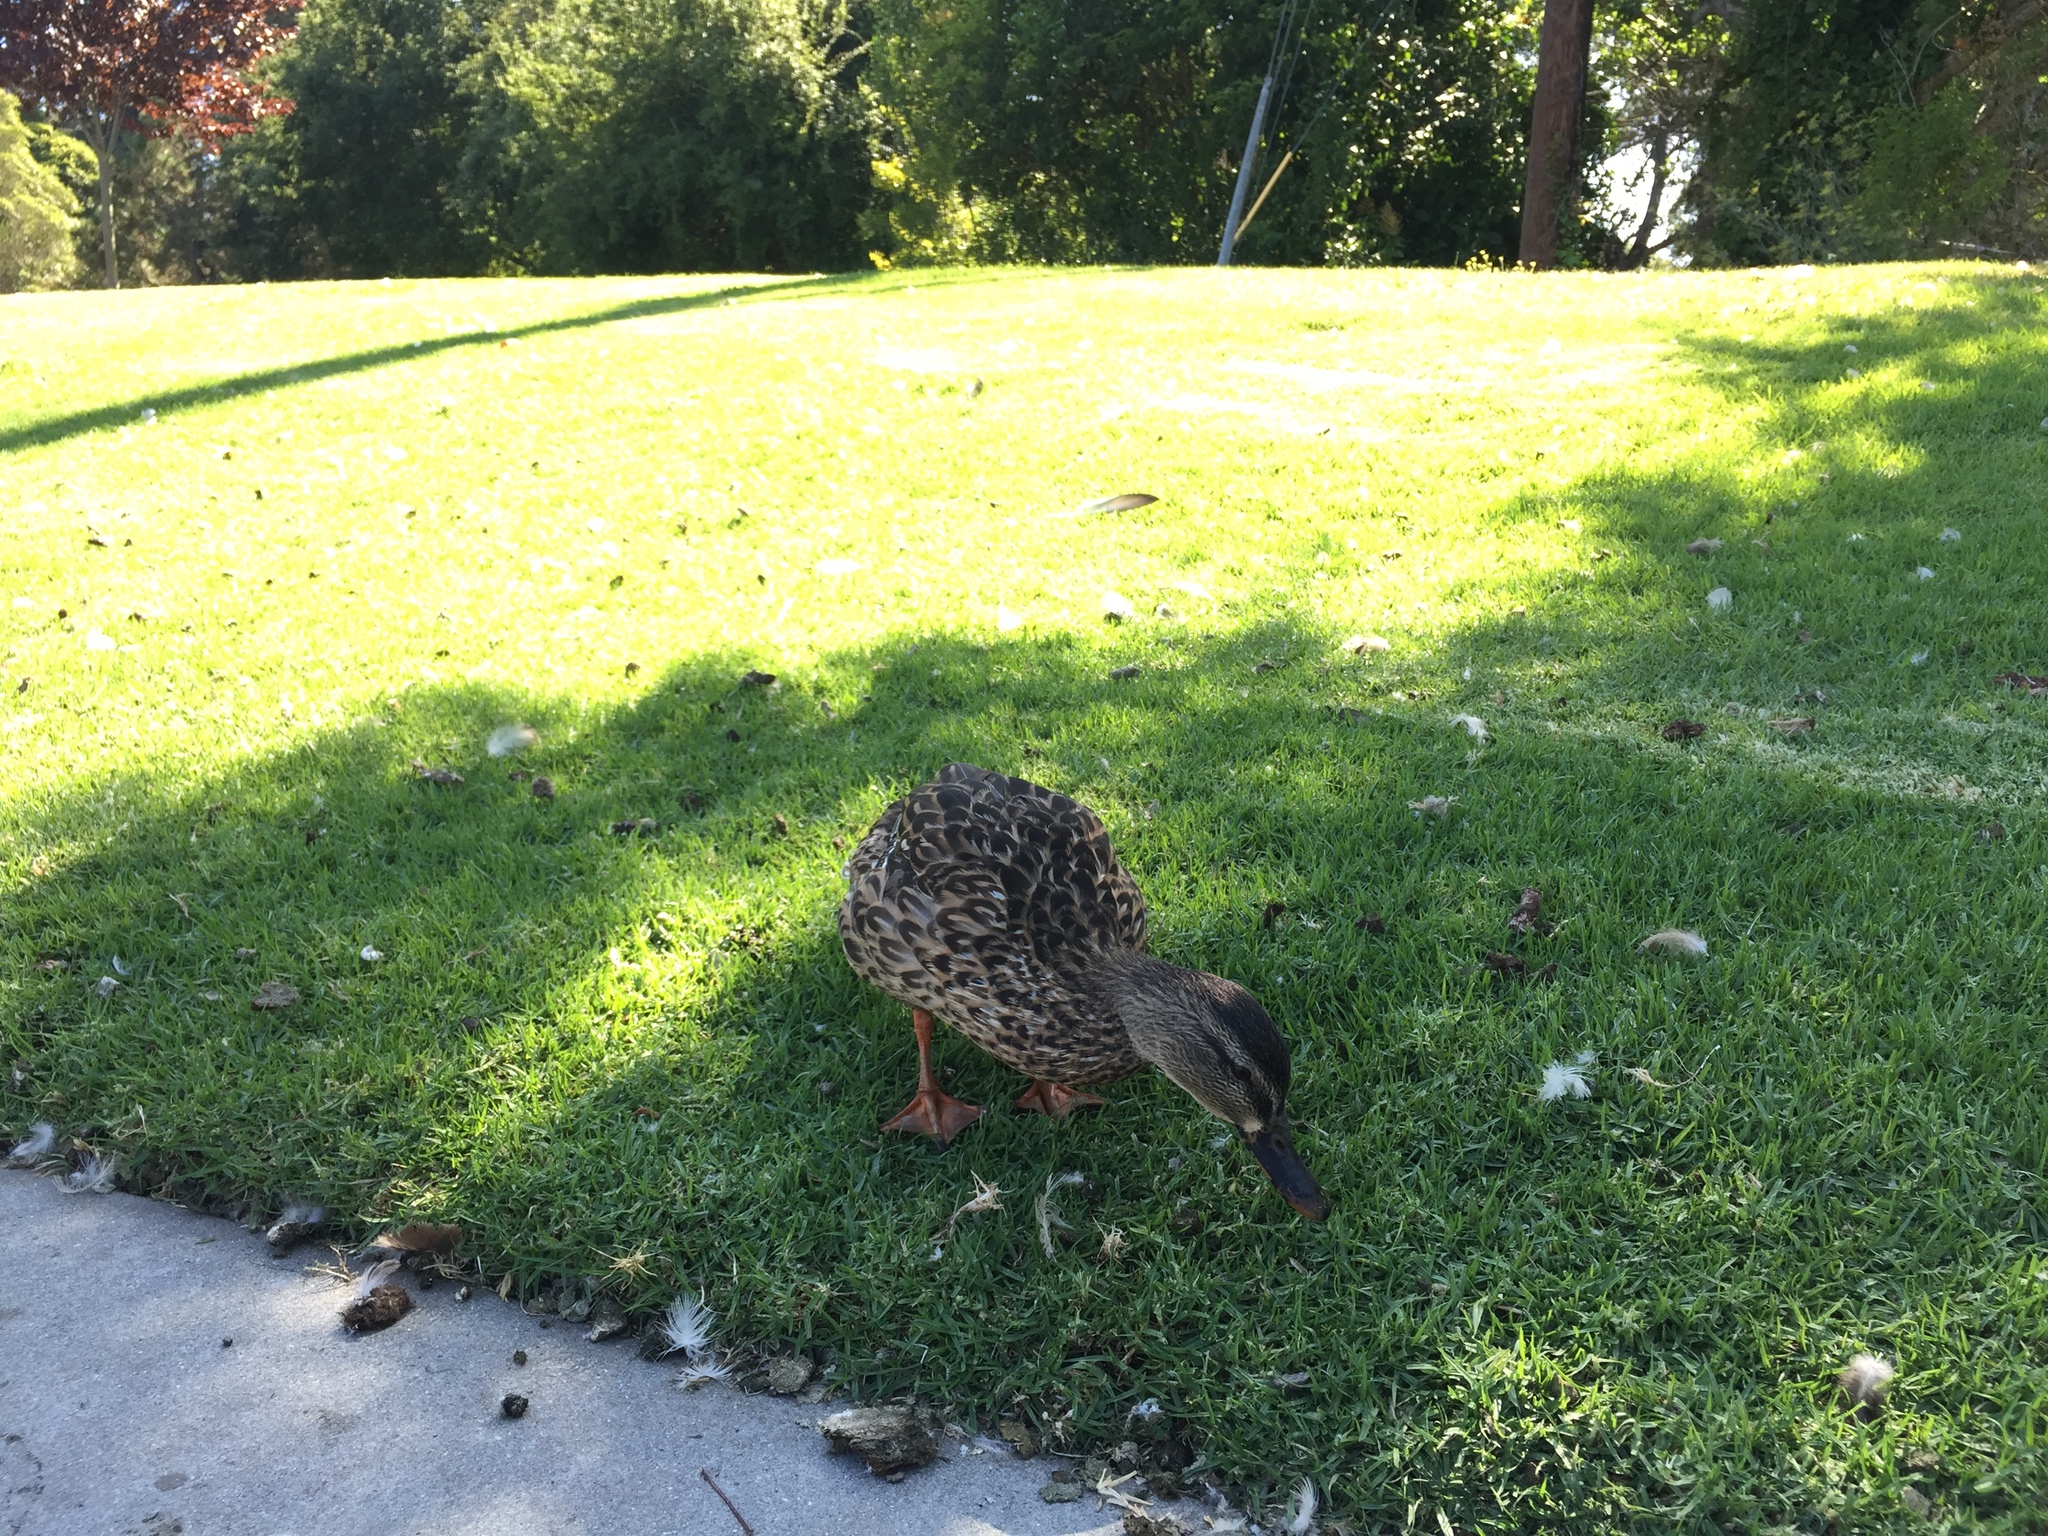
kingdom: Animalia
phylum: Chordata
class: Aves
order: Anseriformes
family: Anatidae
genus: Anas
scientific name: Anas platyrhynchos
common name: Mallard
